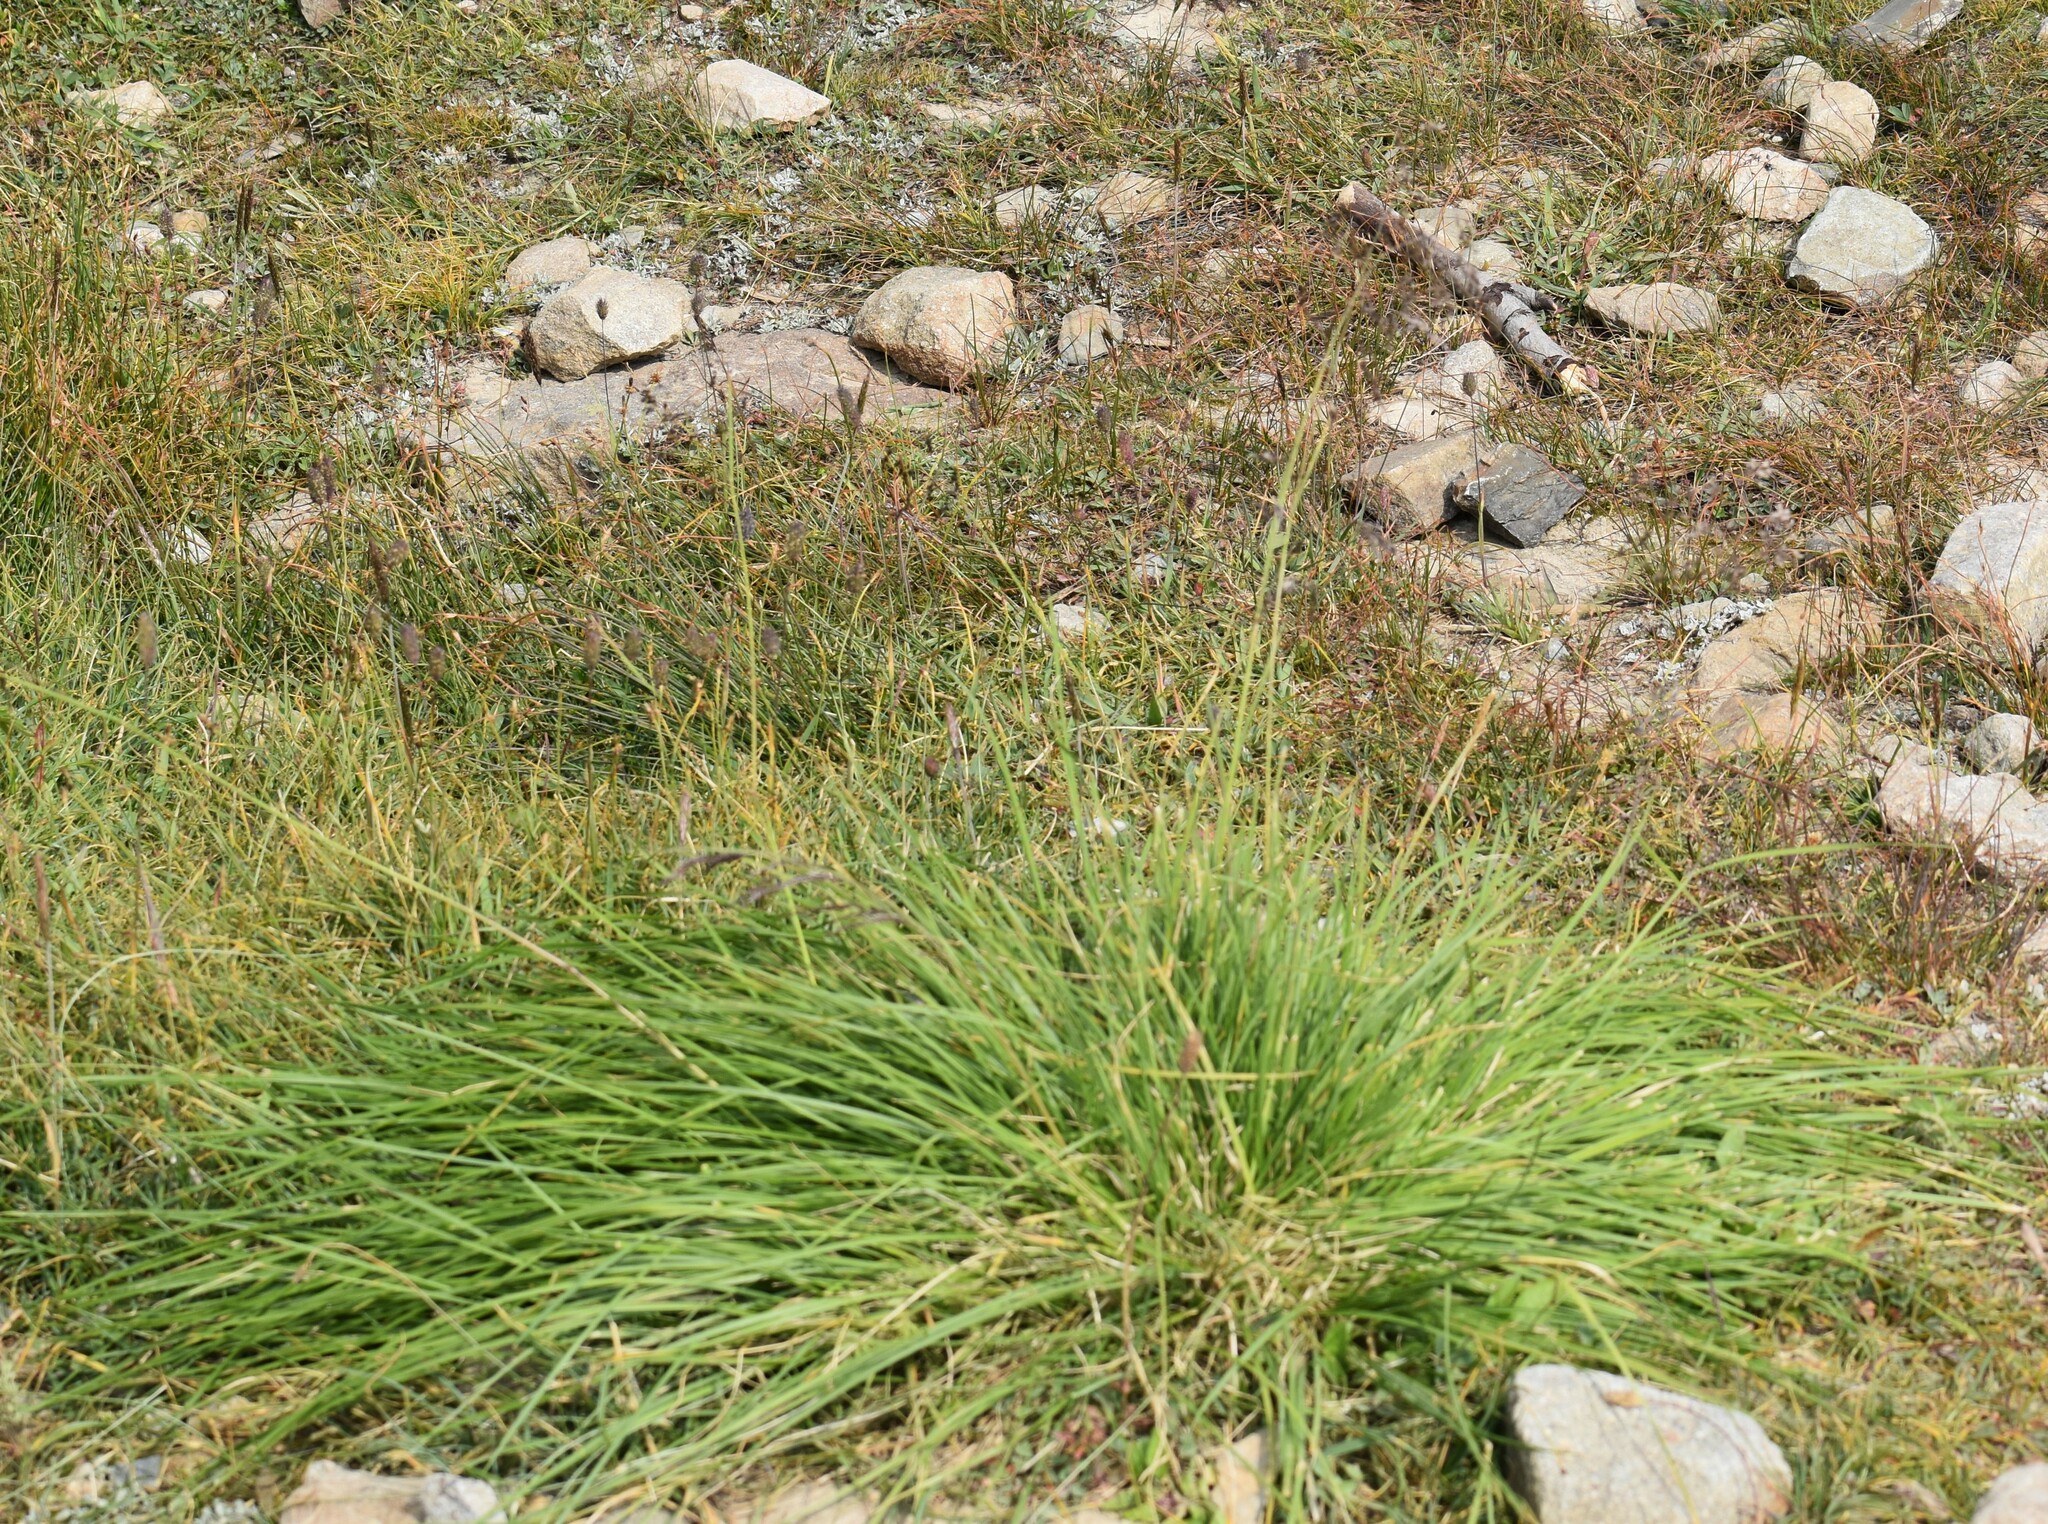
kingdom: Plantae
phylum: Tracheophyta
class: Liliopsida
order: Poales
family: Poaceae
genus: Deschampsia
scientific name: Deschampsia cespitosa
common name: Tufted hair-grass
